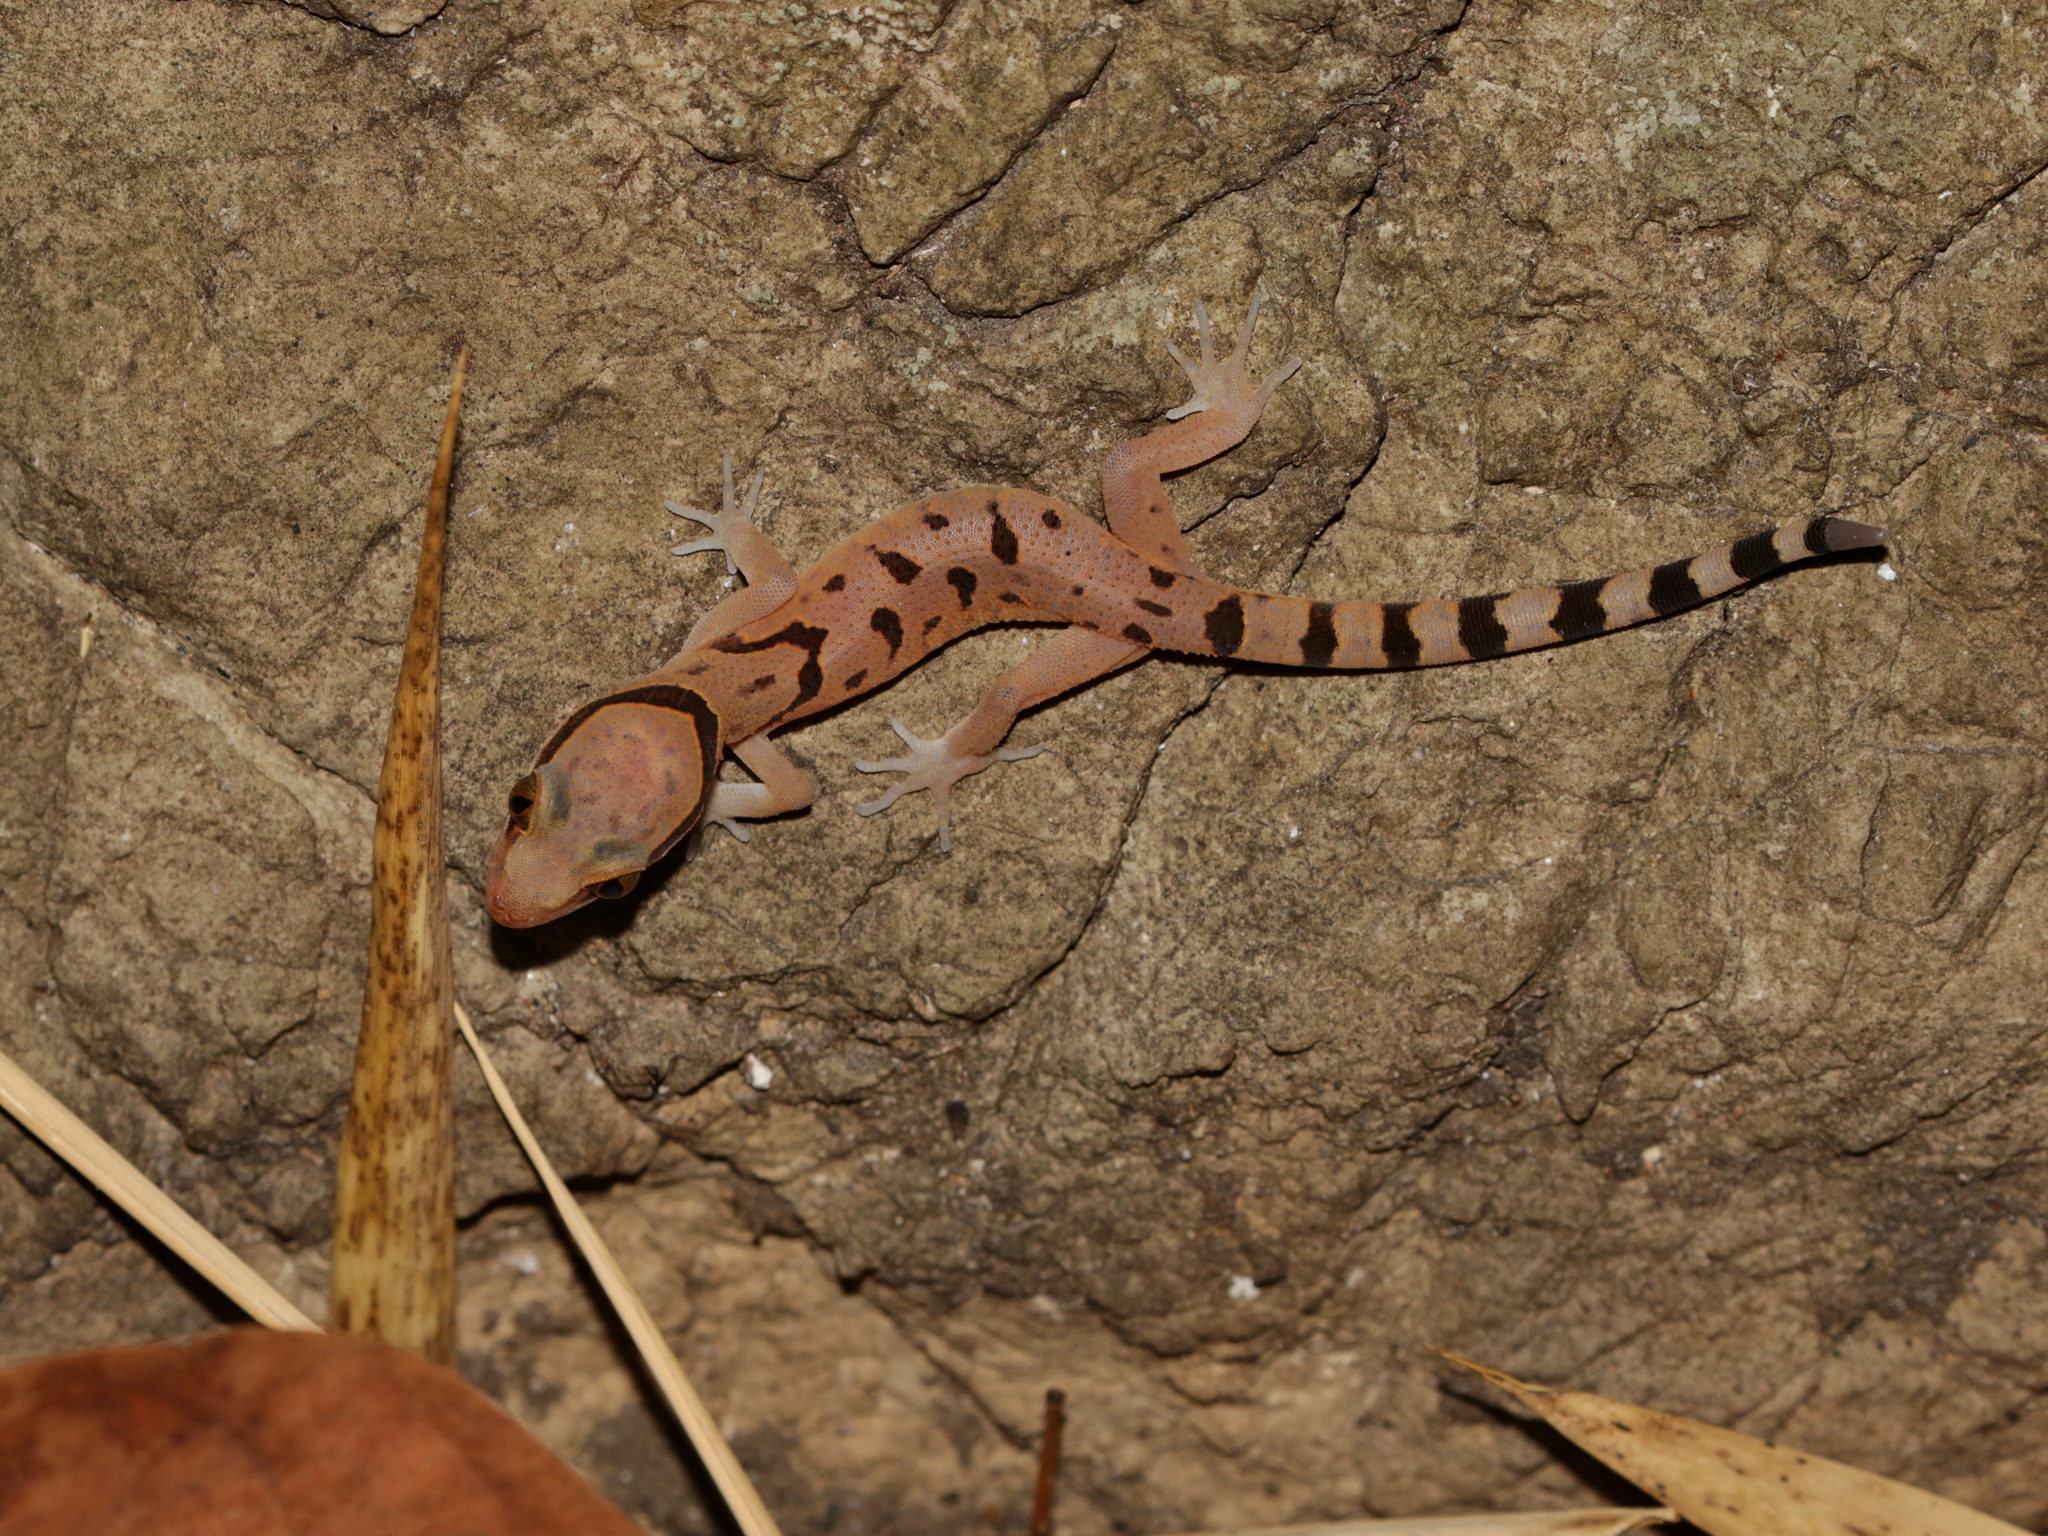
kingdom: Animalia
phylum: Chordata
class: Squamata
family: Gekkonidae
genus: Cyrtodactylus
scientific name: Cyrtodactylus saiyok
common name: Sai yok bent-toed gecko
